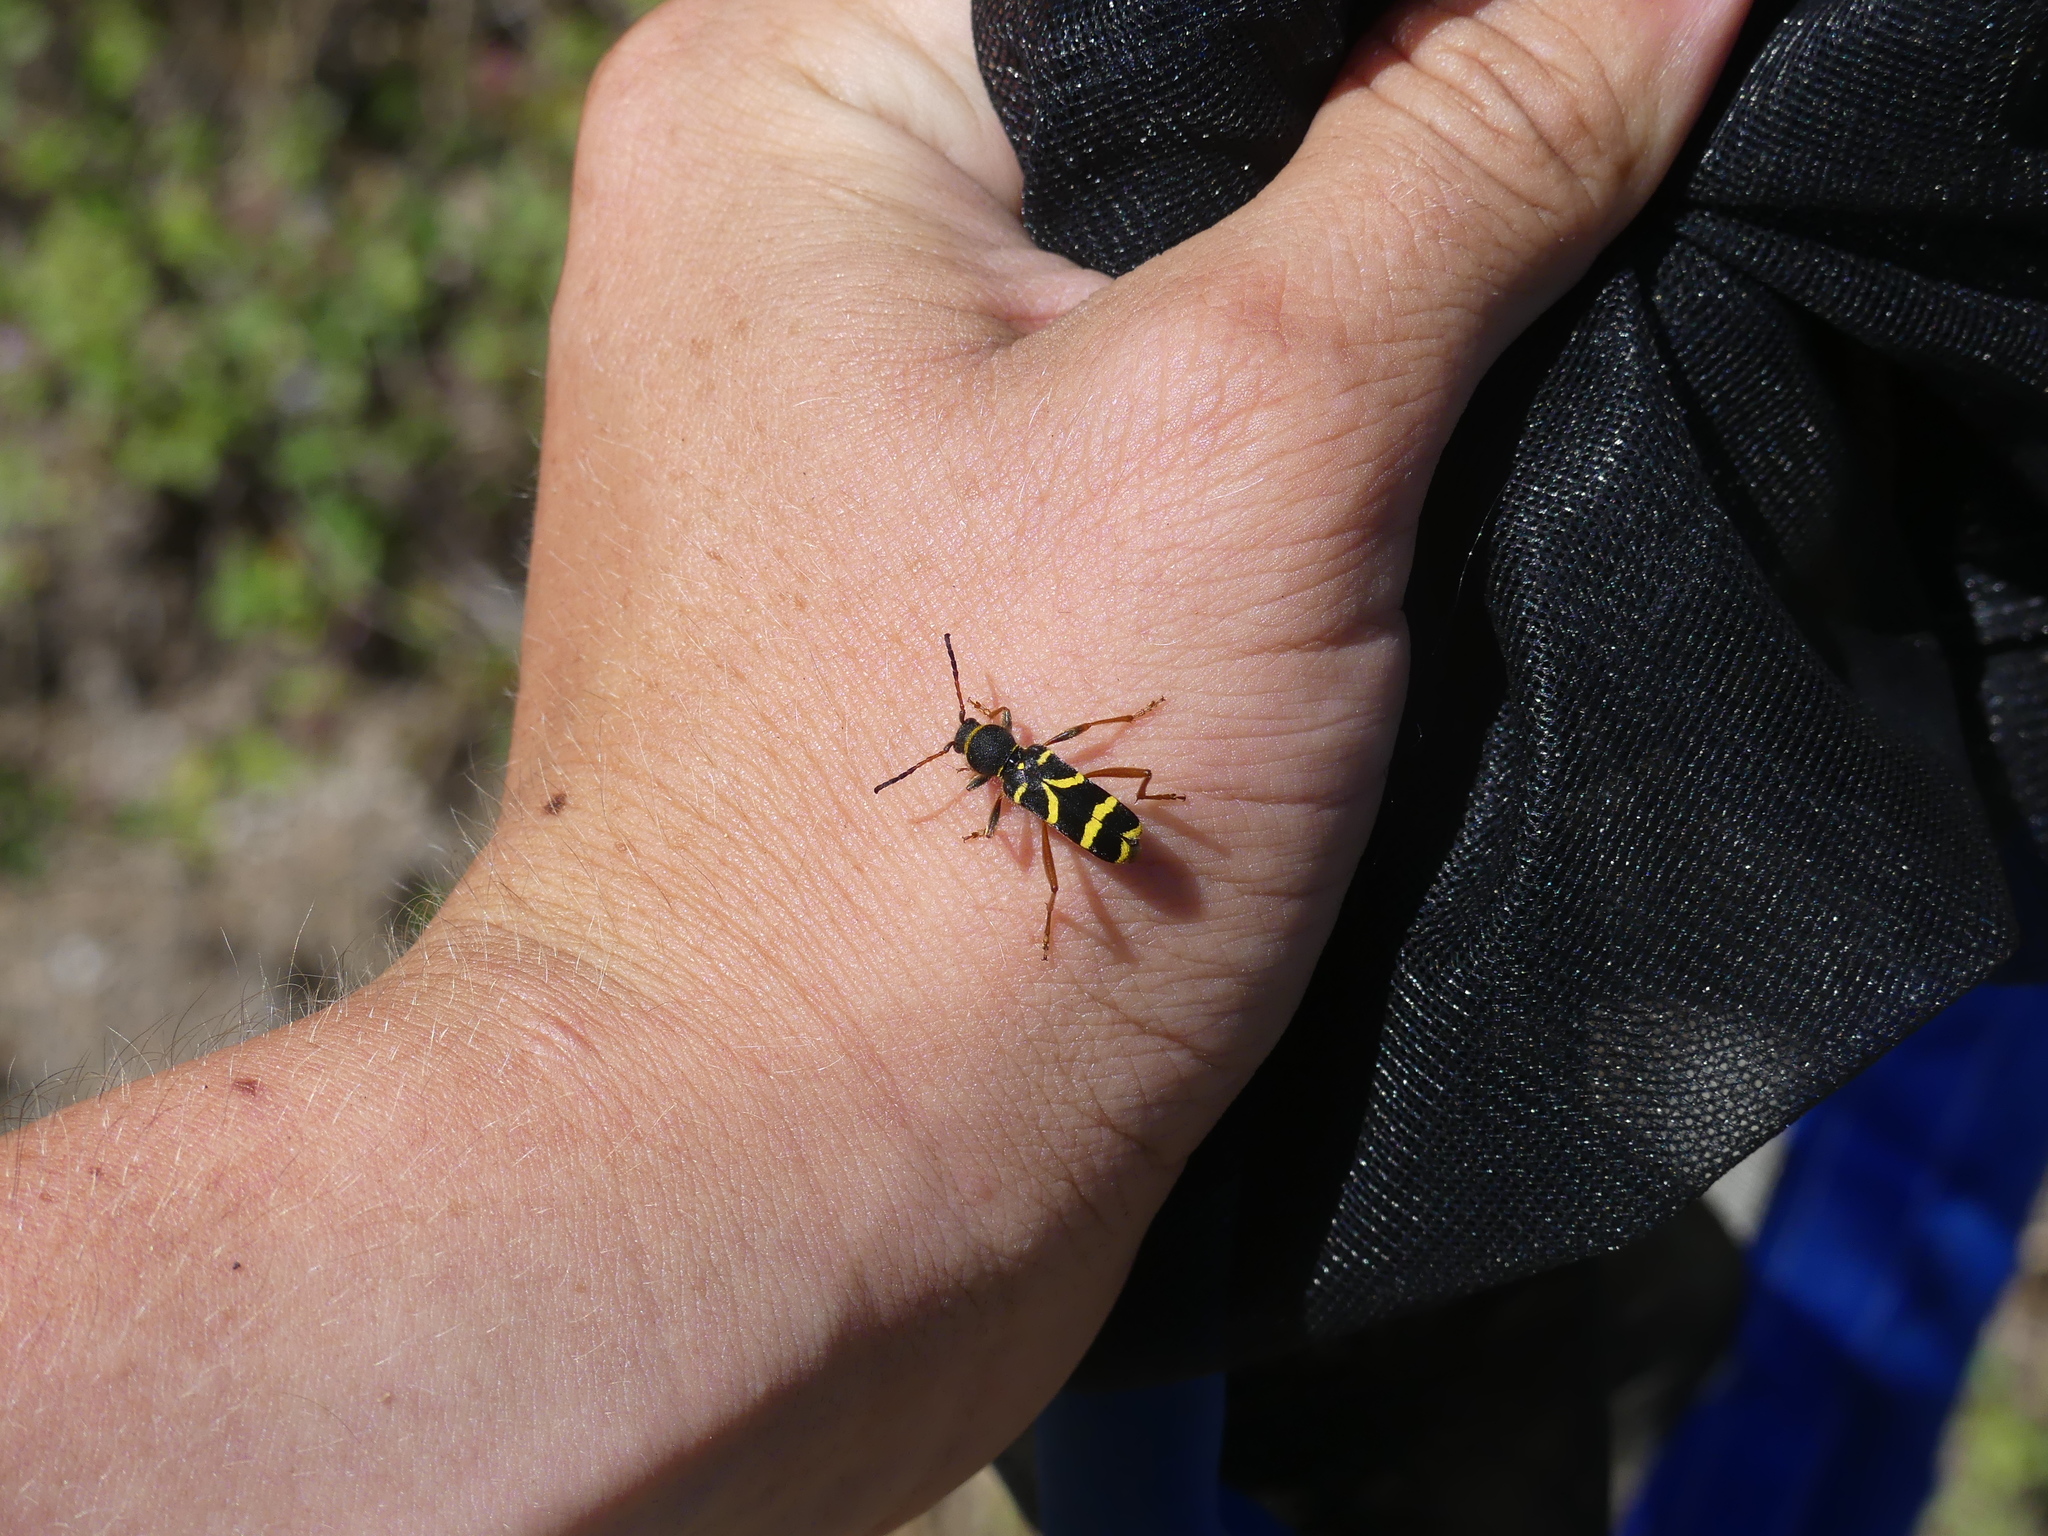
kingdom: Animalia
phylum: Arthropoda
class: Insecta
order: Coleoptera
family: Cerambycidae
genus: Clytus
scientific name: Clytus arietis
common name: Wasp beetle
